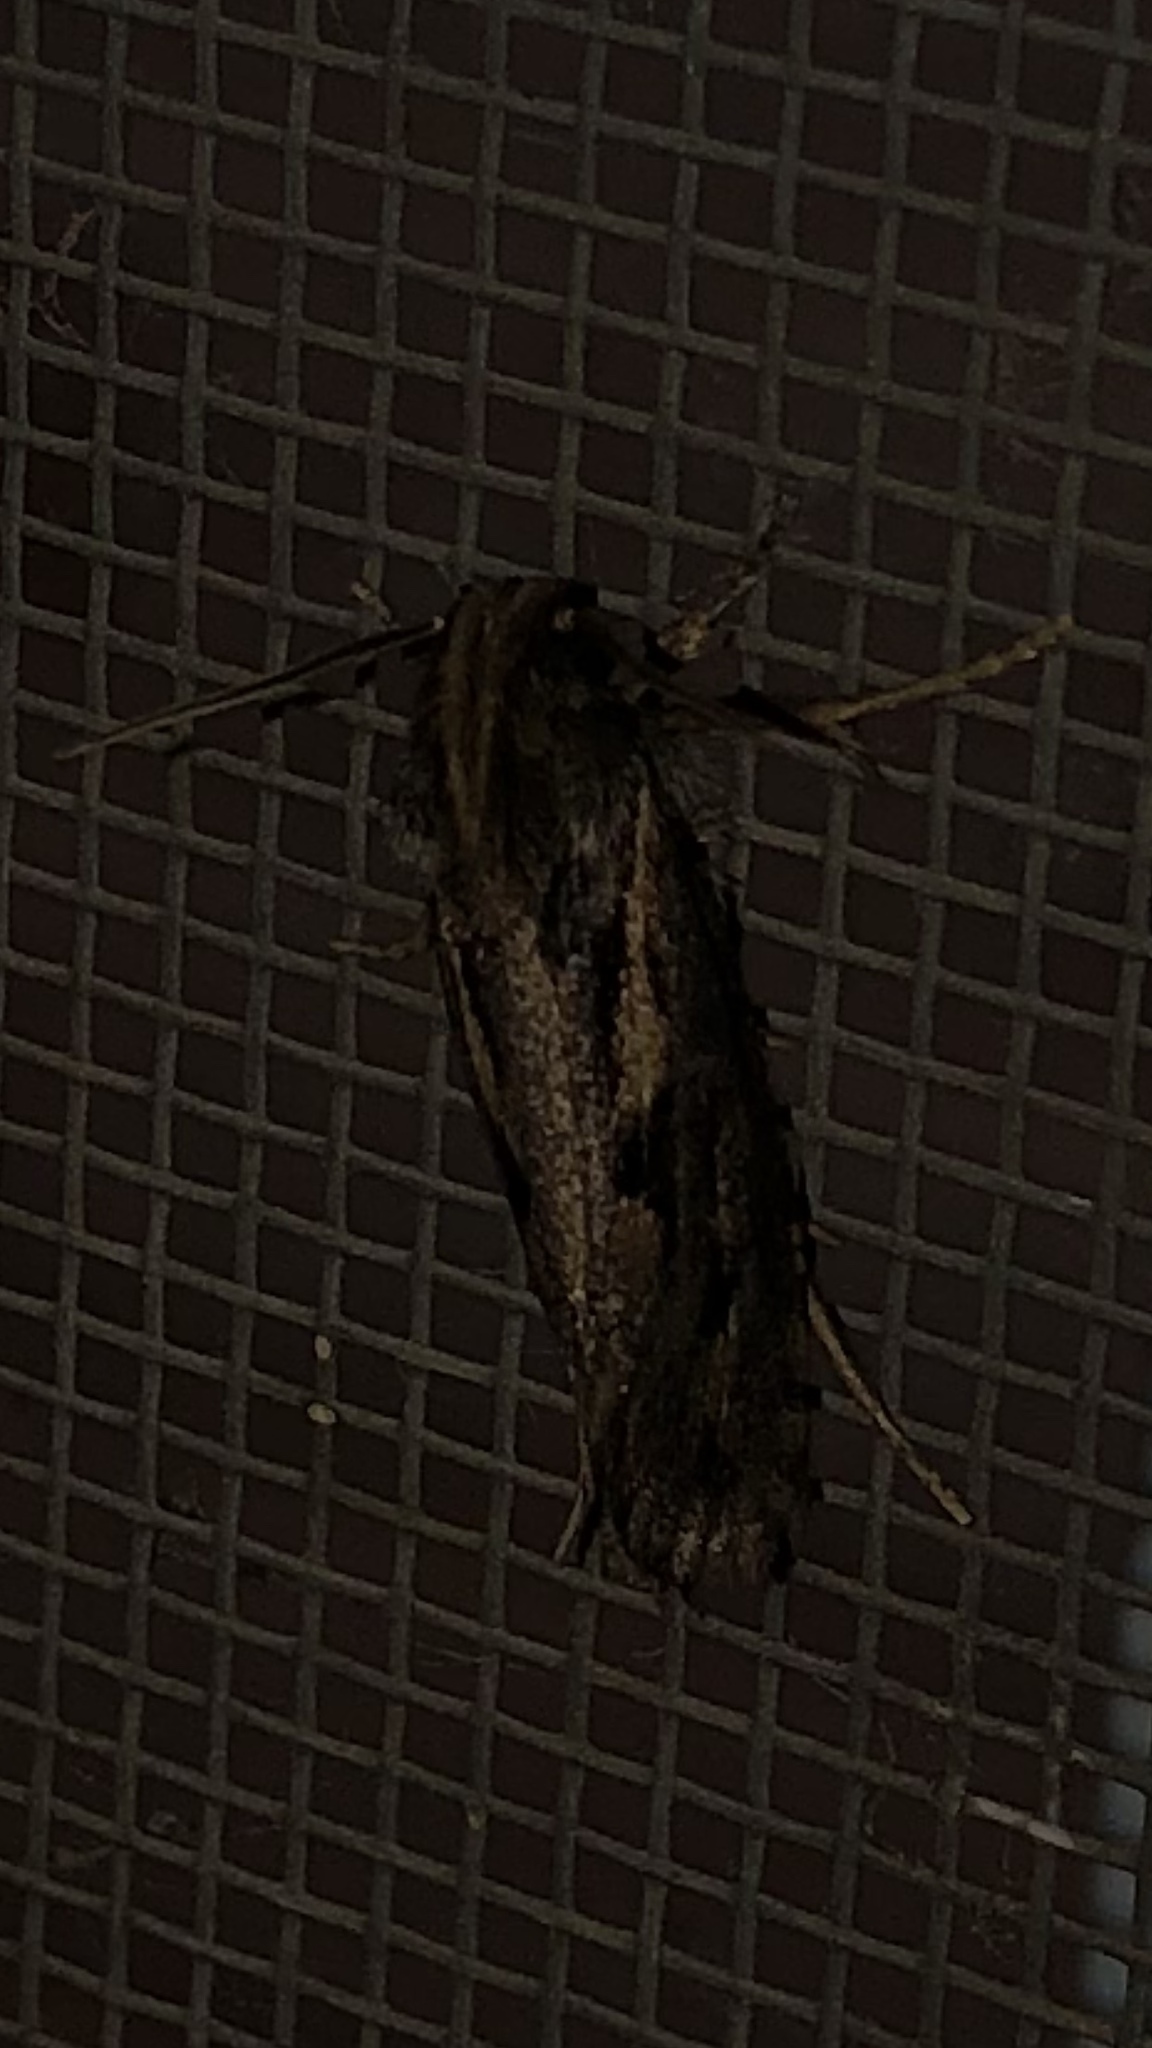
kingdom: Animalia
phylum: Arthropoda
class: Insecta
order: Lepidoptera
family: Tineidae
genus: Acrolophus
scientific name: Acrolophus popeanella
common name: Clemens' grass tubeworm moth
